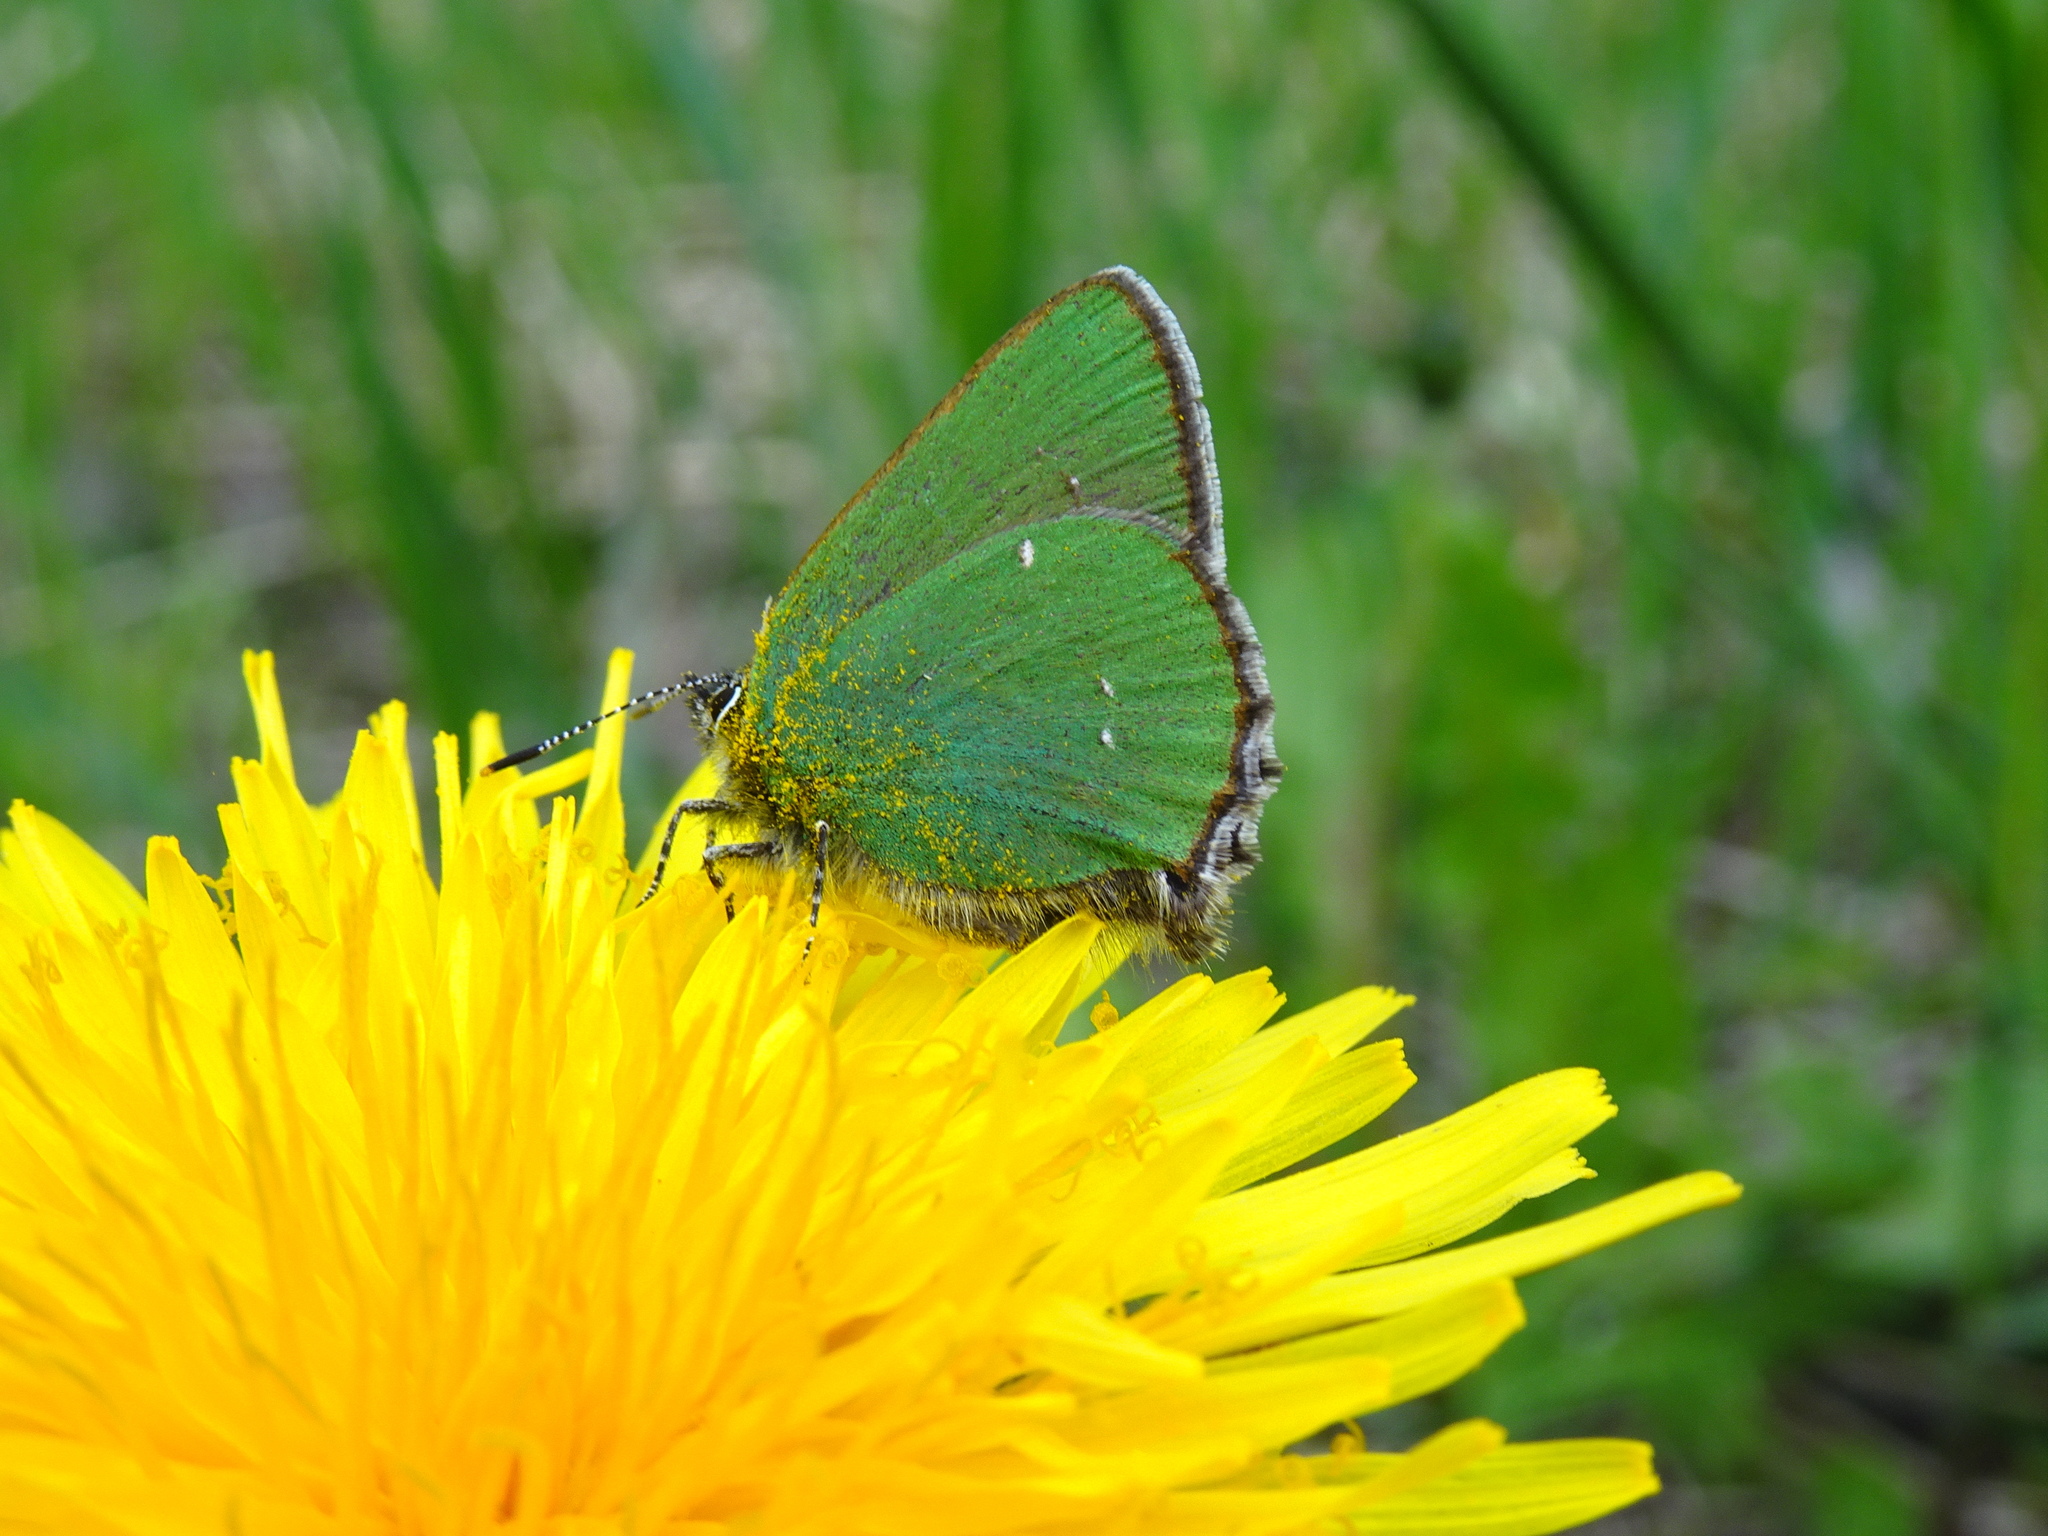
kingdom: Animalia
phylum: Arthropoda
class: Insecta
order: Lepidoptera
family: Lycaenidae
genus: Callophrys
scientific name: Callophrys rubi
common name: Green hairstreak
